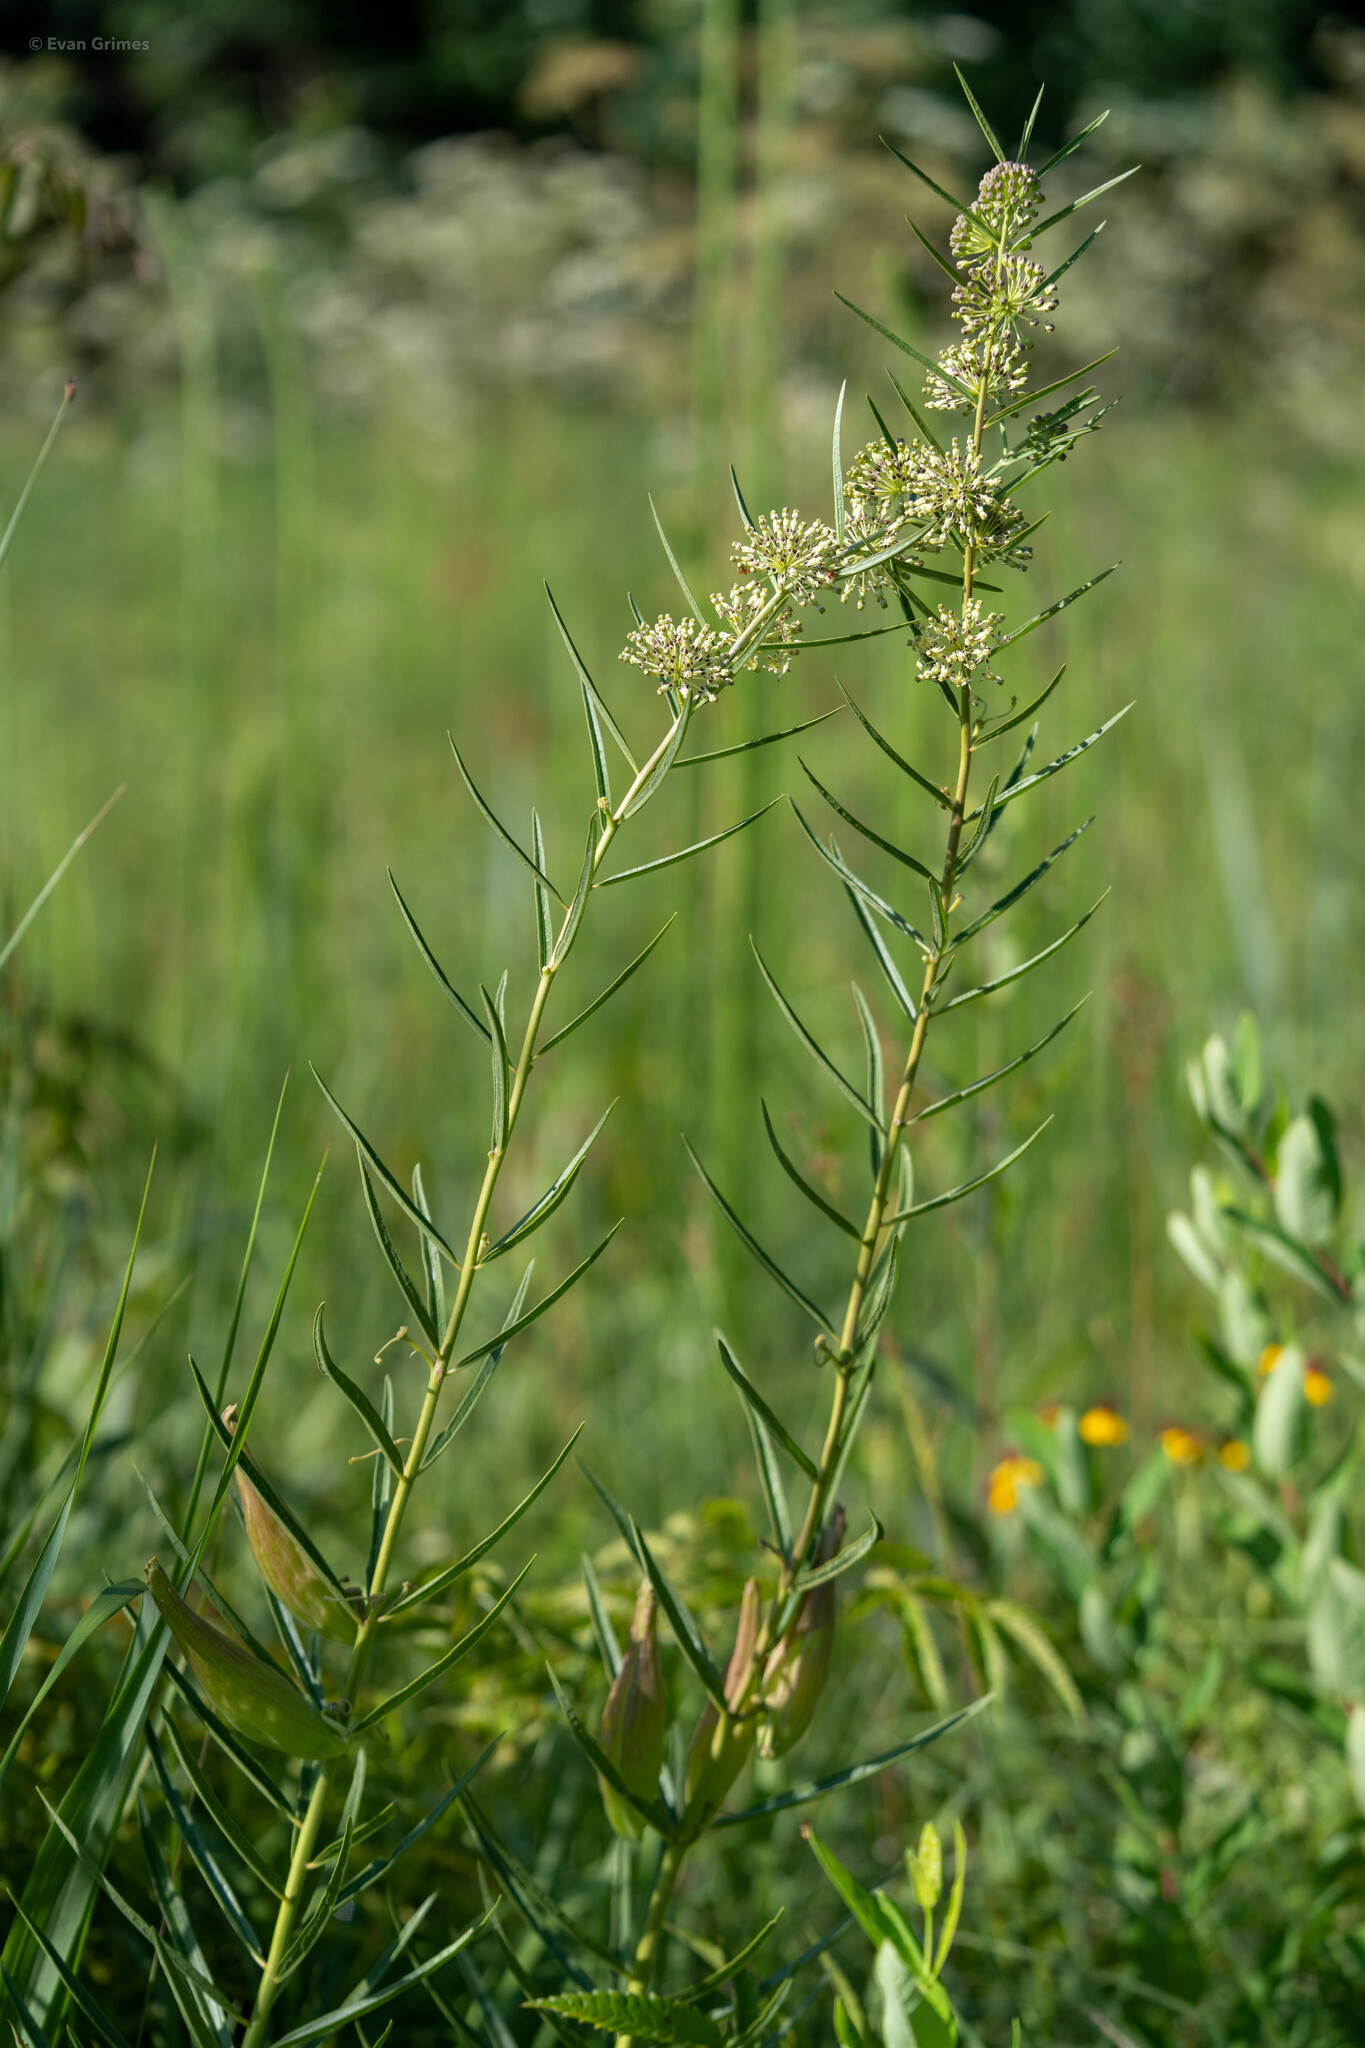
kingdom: Plantae
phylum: Tracheophyta
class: Magnoliopsida
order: Gentianales
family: Apocynaceae
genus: Asclepias
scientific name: Asclepias hirtella
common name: Prairie milkweed
